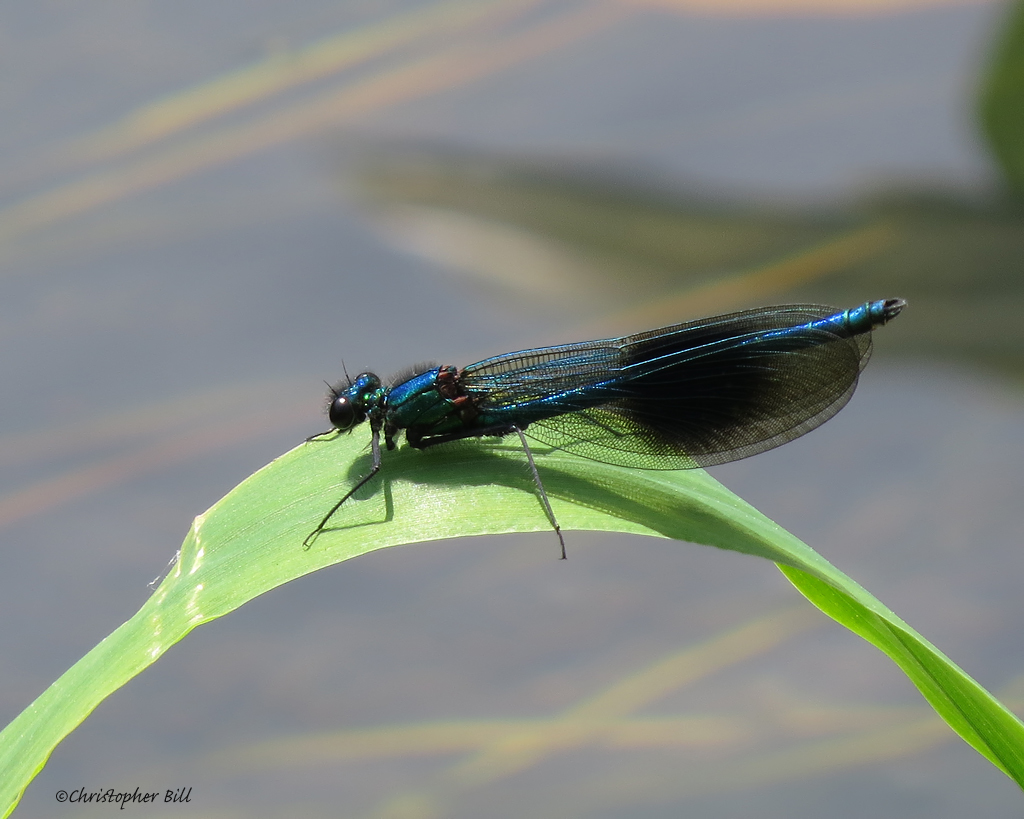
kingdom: Animalia
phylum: Arthropoda
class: Insecta
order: Odonata
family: Calopterygidae
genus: Calopteryx
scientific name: Calopteryx splendens
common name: Banded demoiselle
